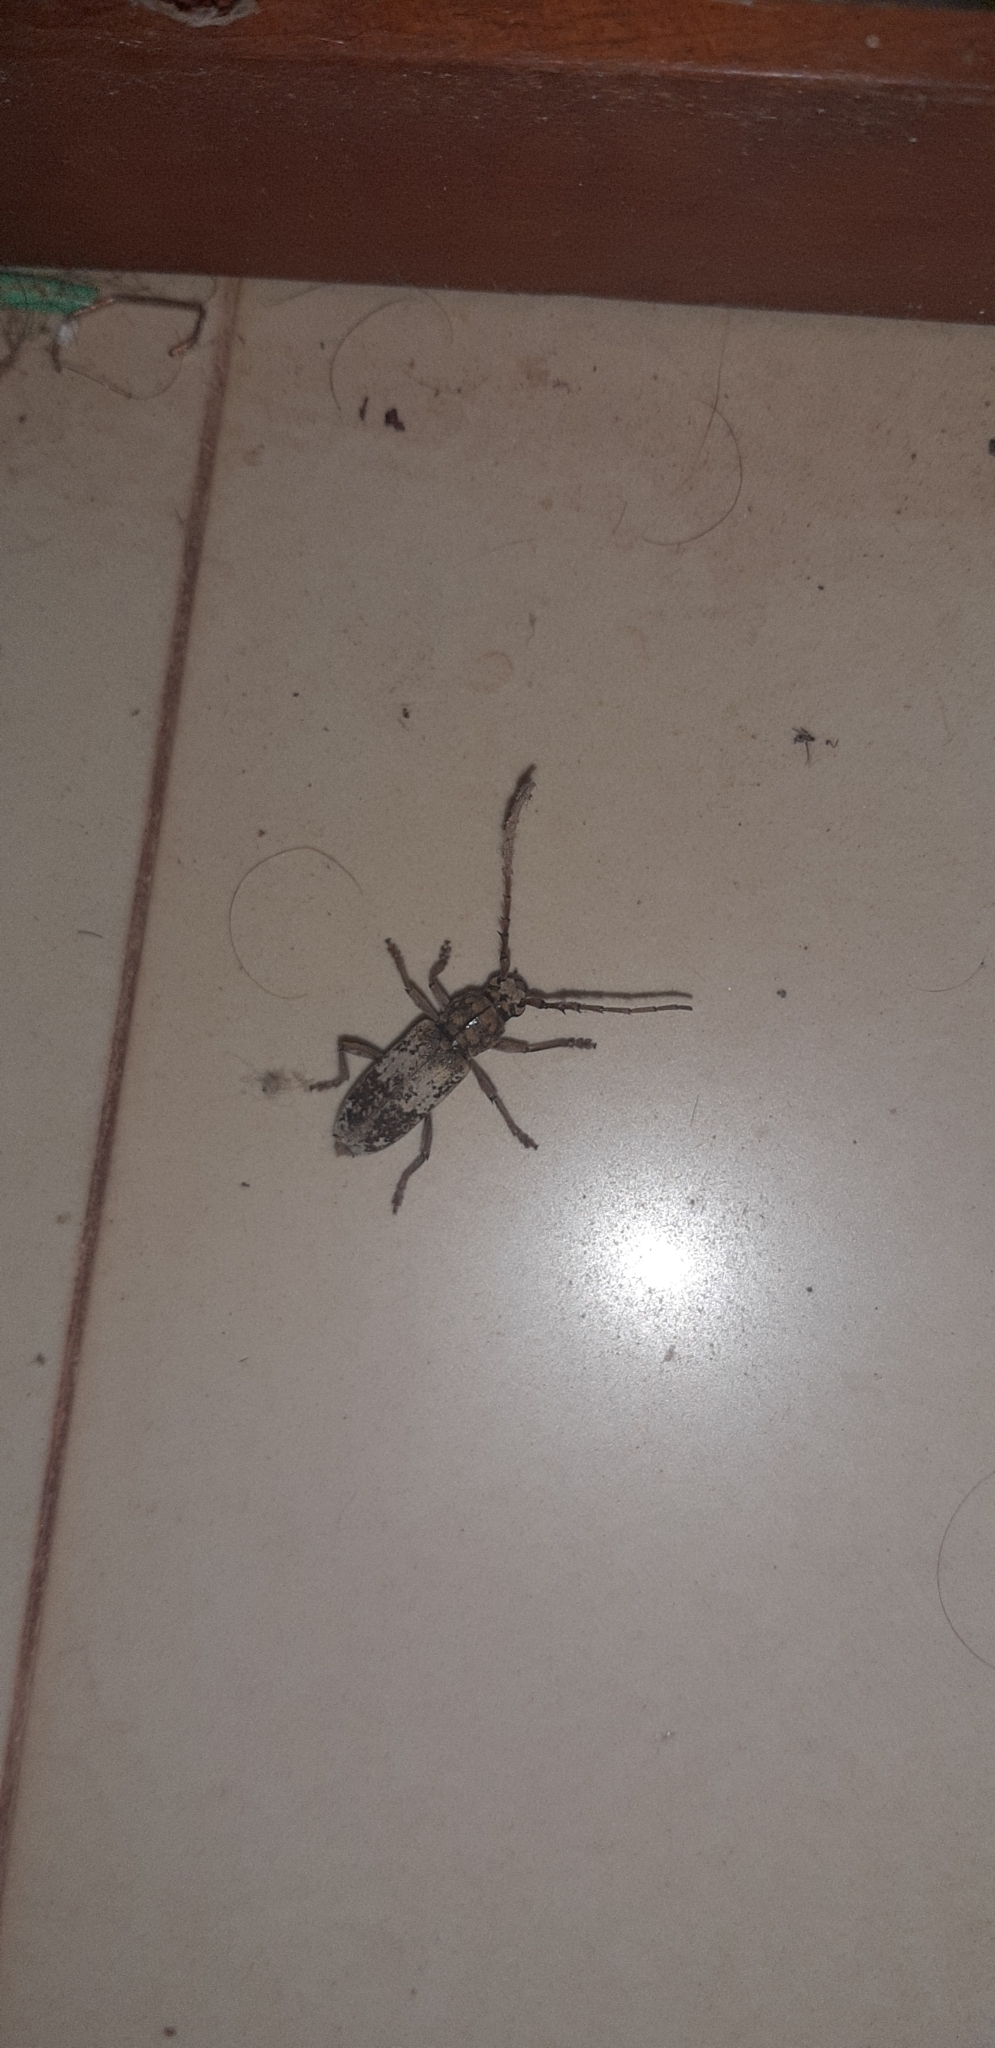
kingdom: Animalia
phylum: Arthropoda
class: Insecta
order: Coleoptera
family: Cerambycidae
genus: Lanephus
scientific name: Lanephus njumanii
